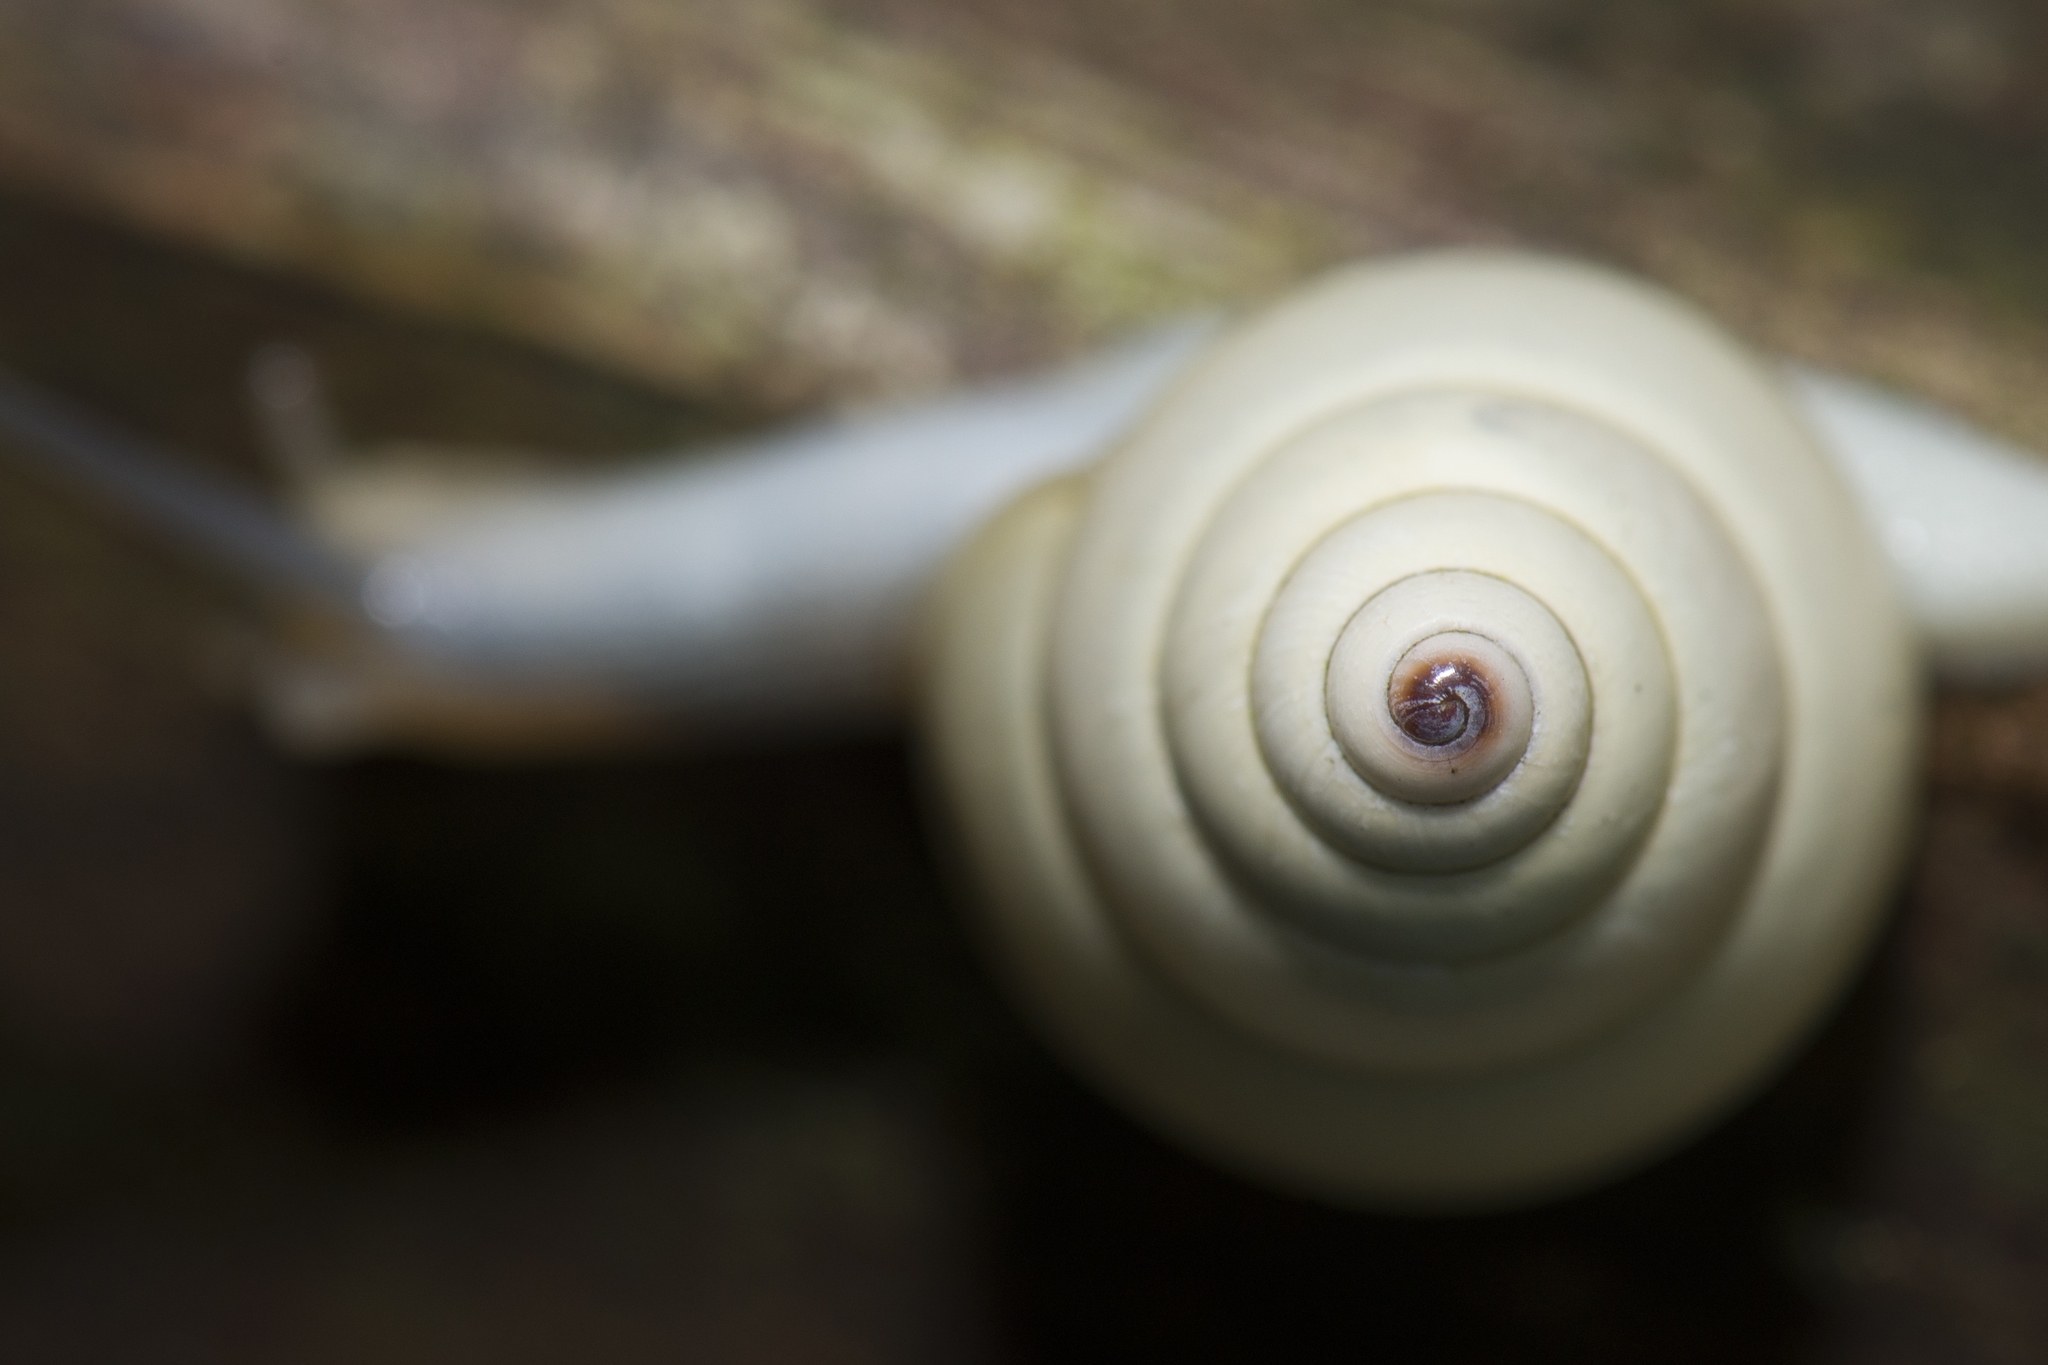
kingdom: Animalia
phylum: Mollusca
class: Gastropoda
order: Stylommatophora
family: Camaenidae
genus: Satsuma
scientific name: Satsuma phoenicis
